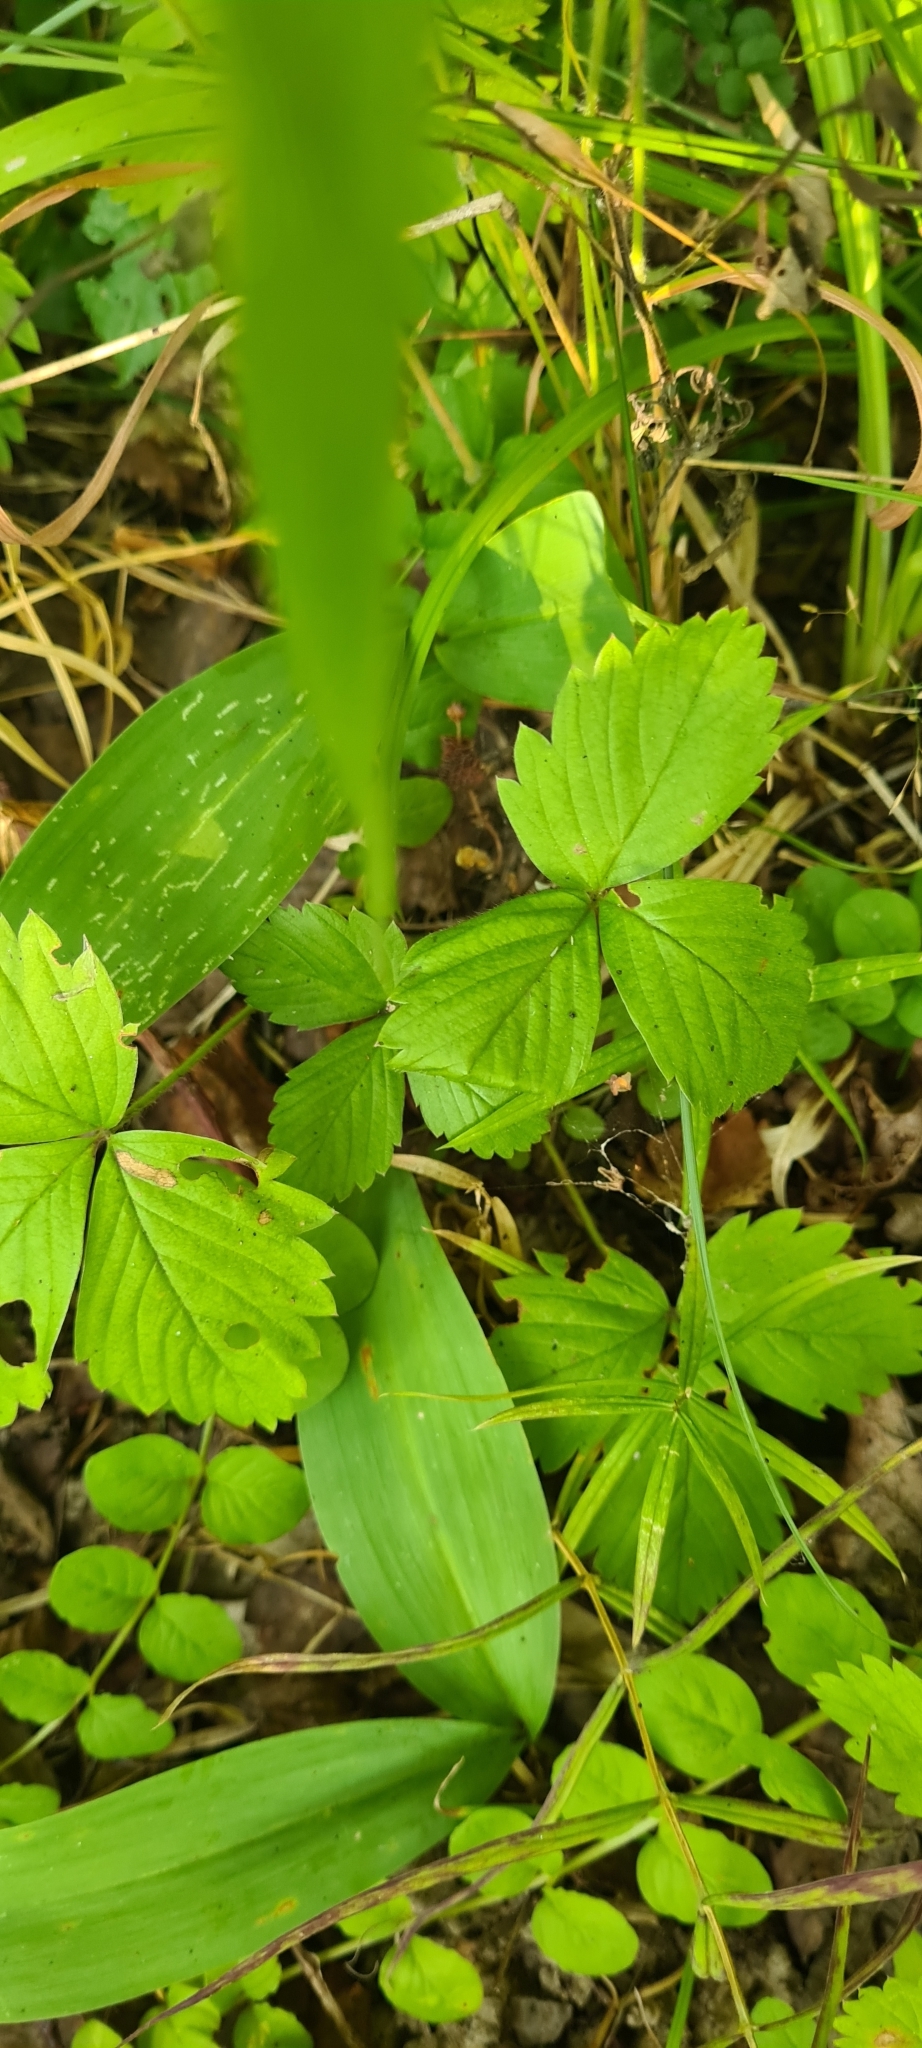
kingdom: Plantae
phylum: Tracheophyta
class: Magnoliopsida
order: Rosales
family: Rosaceae
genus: Fragaria
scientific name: Fragaria vesca
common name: Wild strawberry
